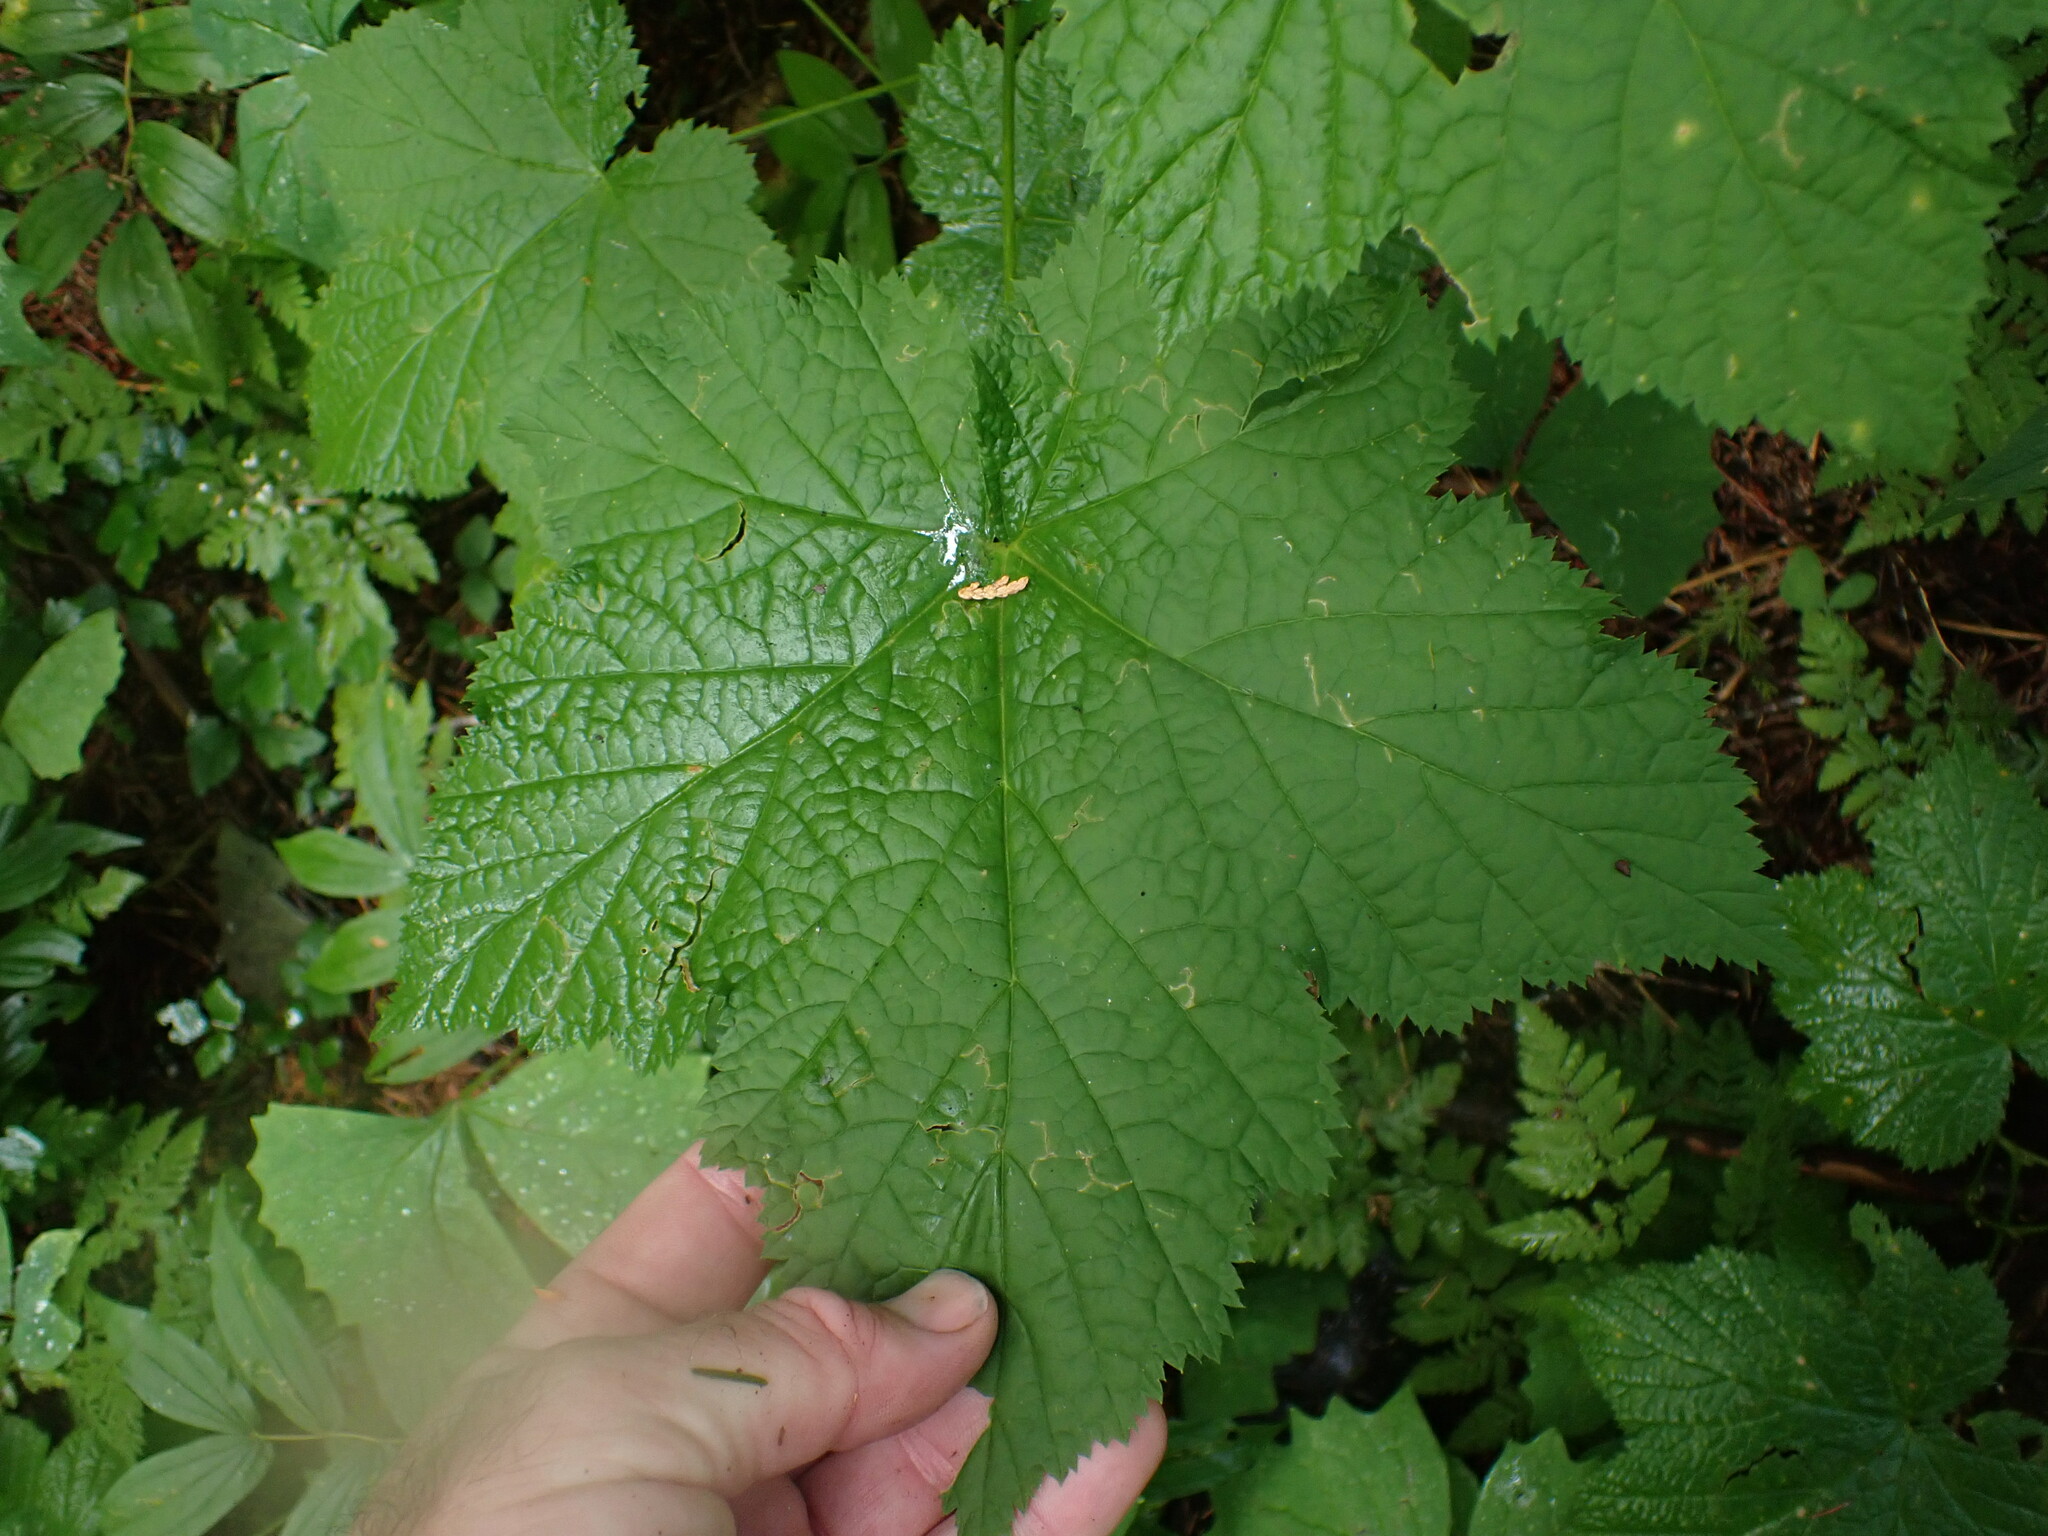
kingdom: Plantae
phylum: Tracheophyta
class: Magnoliopsida
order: Rosales
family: Rosaceae
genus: Rubus
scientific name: Rubus parviflorus
